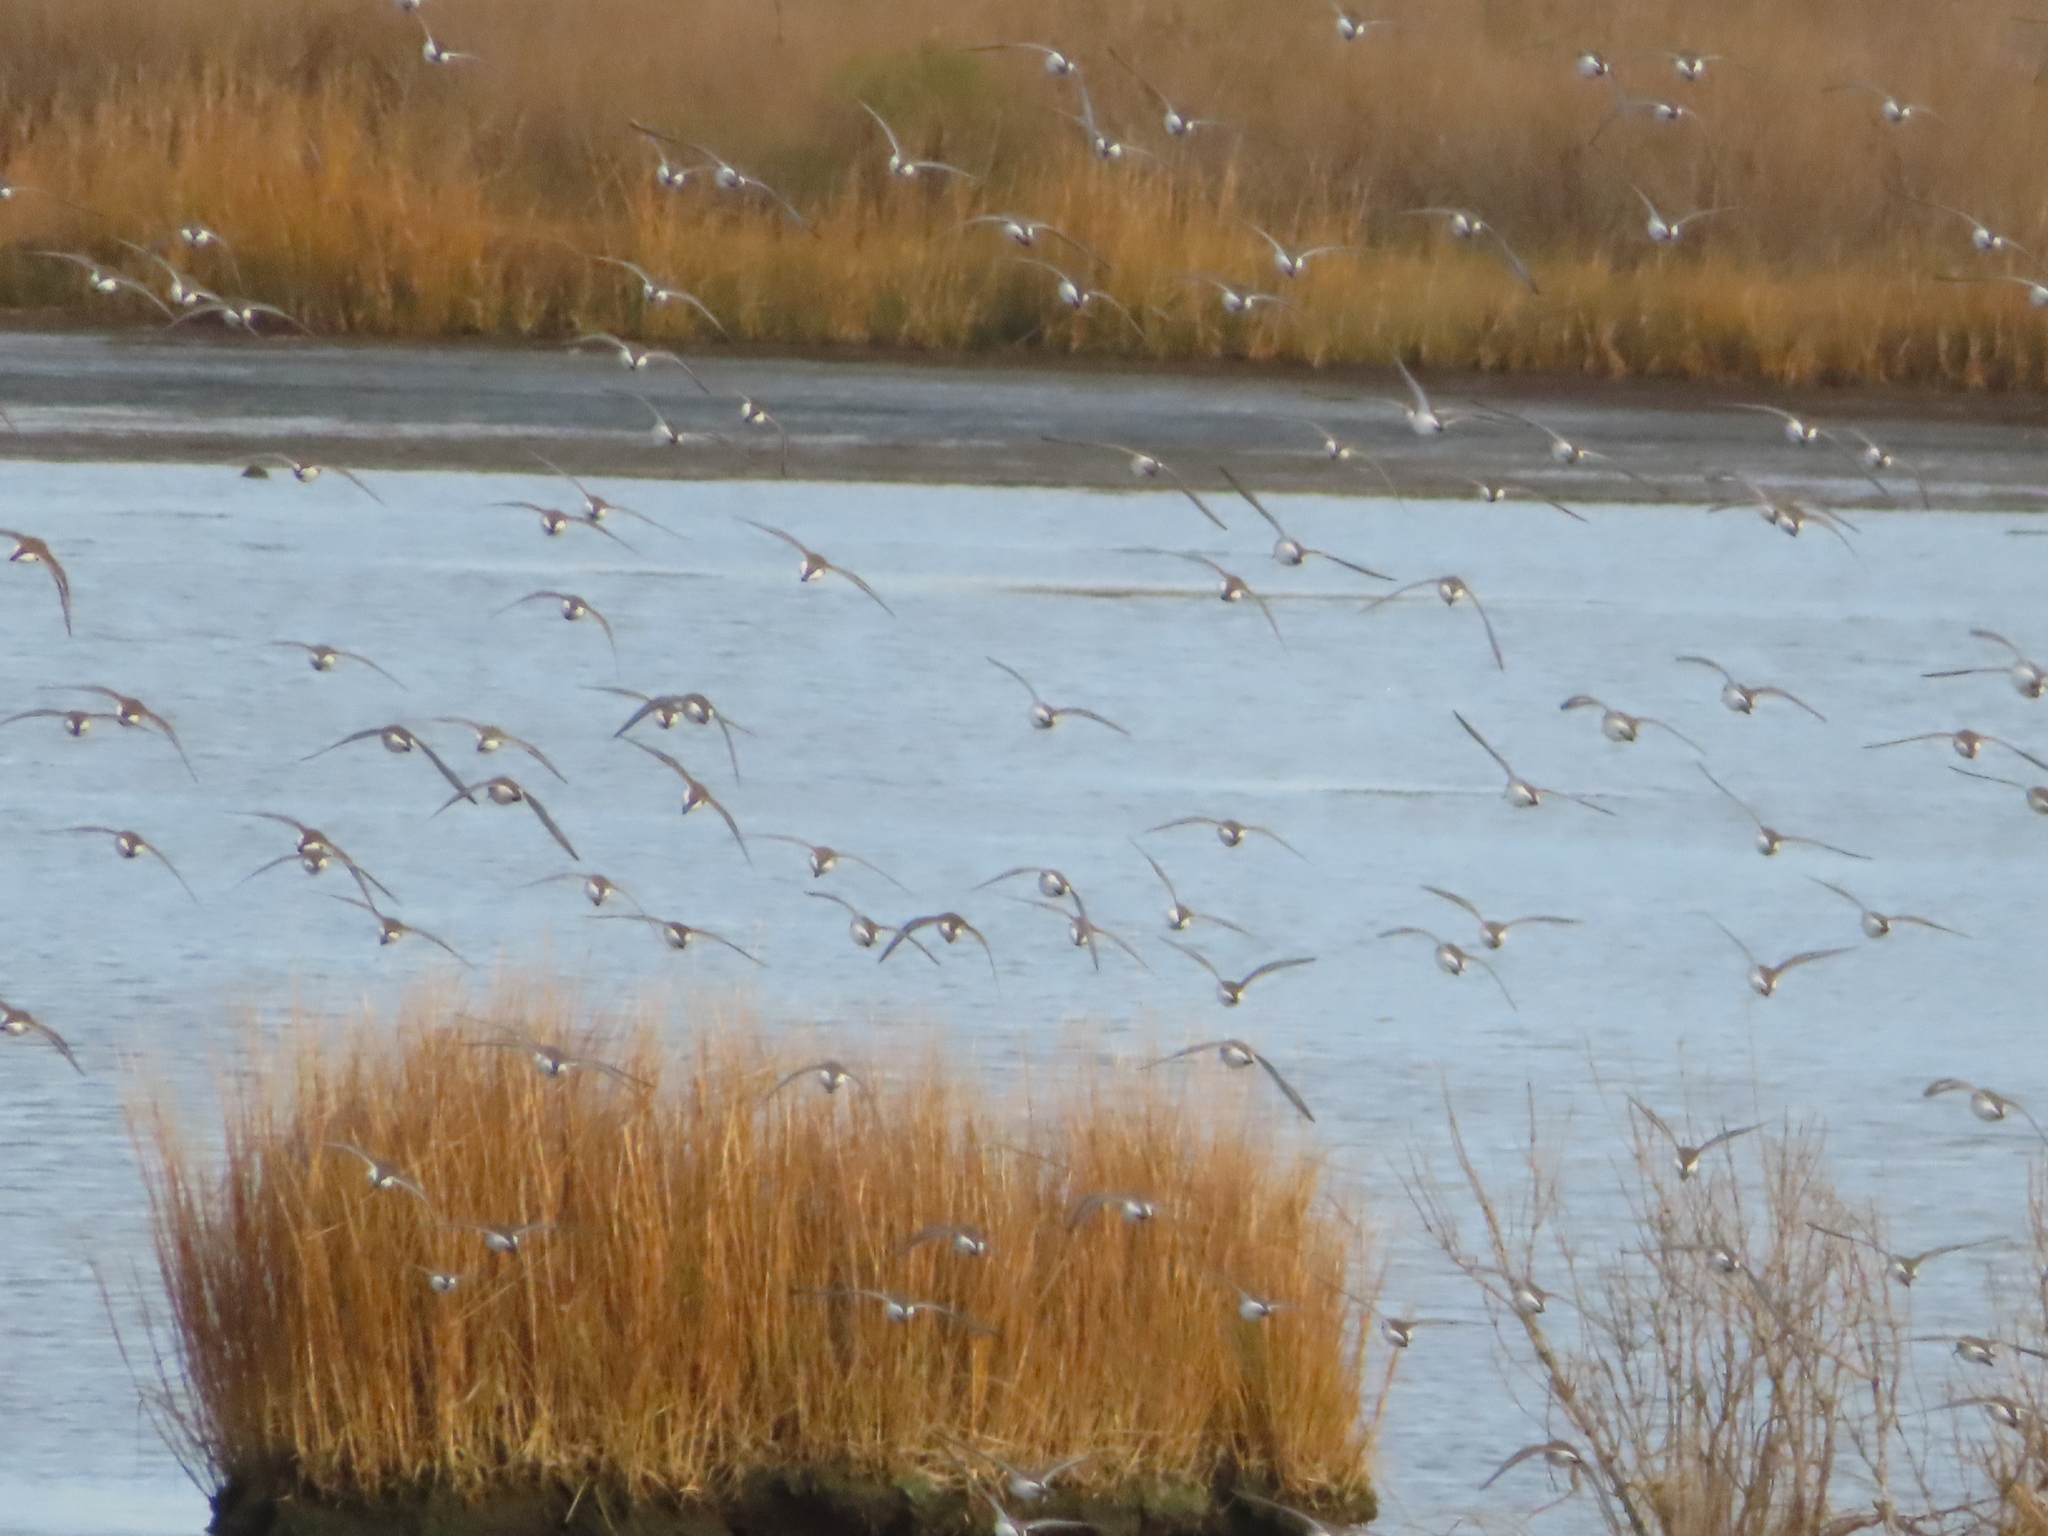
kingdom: Animalia
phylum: Chordata
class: Aves
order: Charadriiformes
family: Scolopacidae
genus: Calidris
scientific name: Calidris alpina
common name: Dunlin
